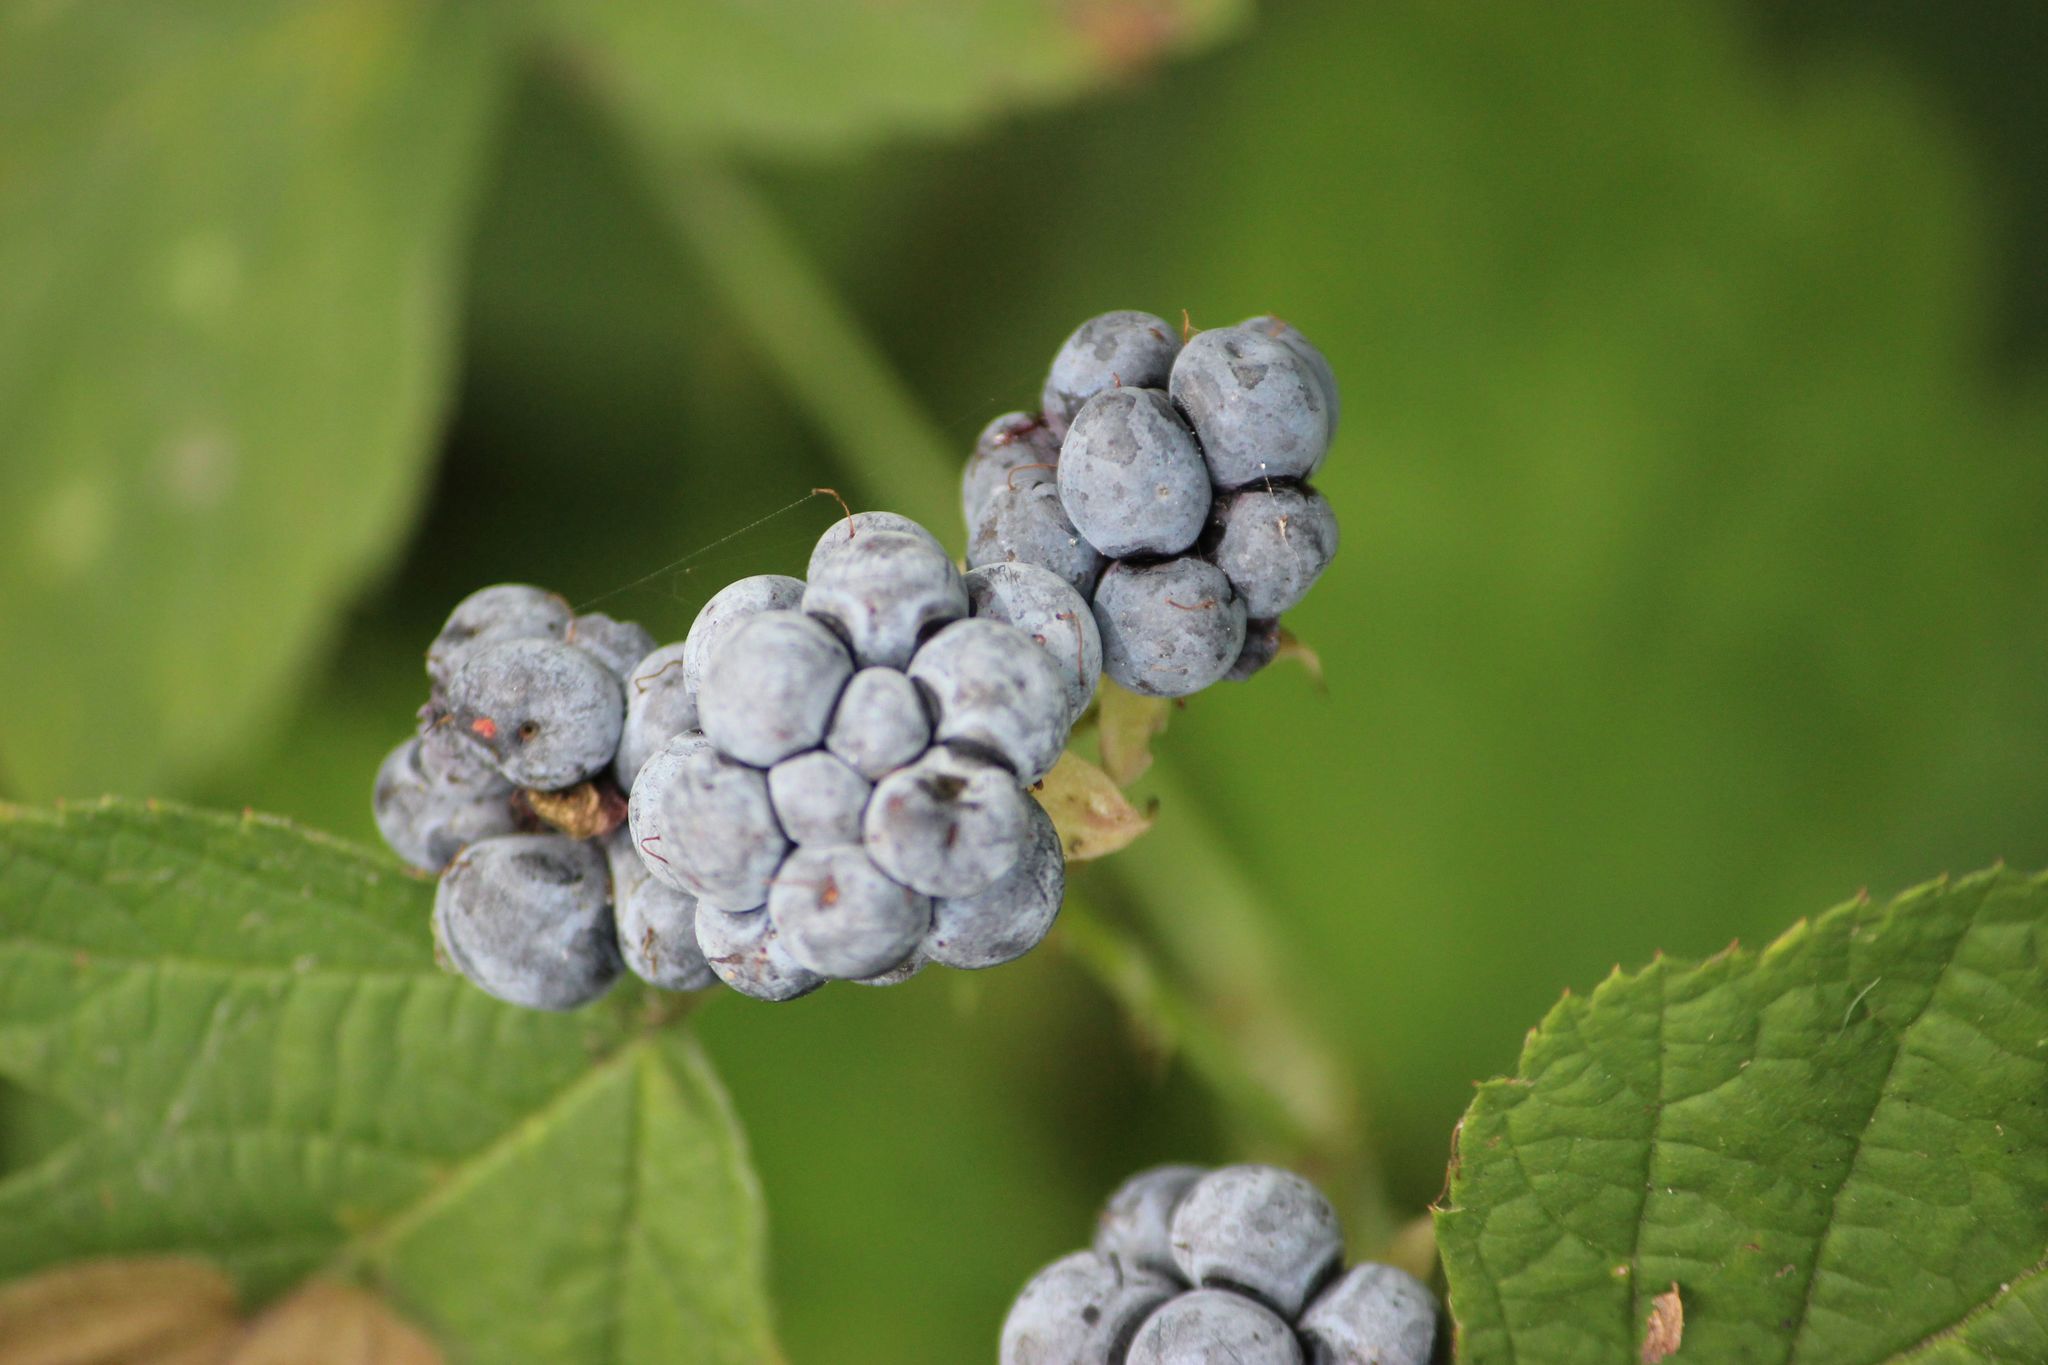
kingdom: Plantae
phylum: Tracheophyta
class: Magnoliopsida
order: Rosales
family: Rosaceae
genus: Rubus
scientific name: Rubus caesius
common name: Dewberry
